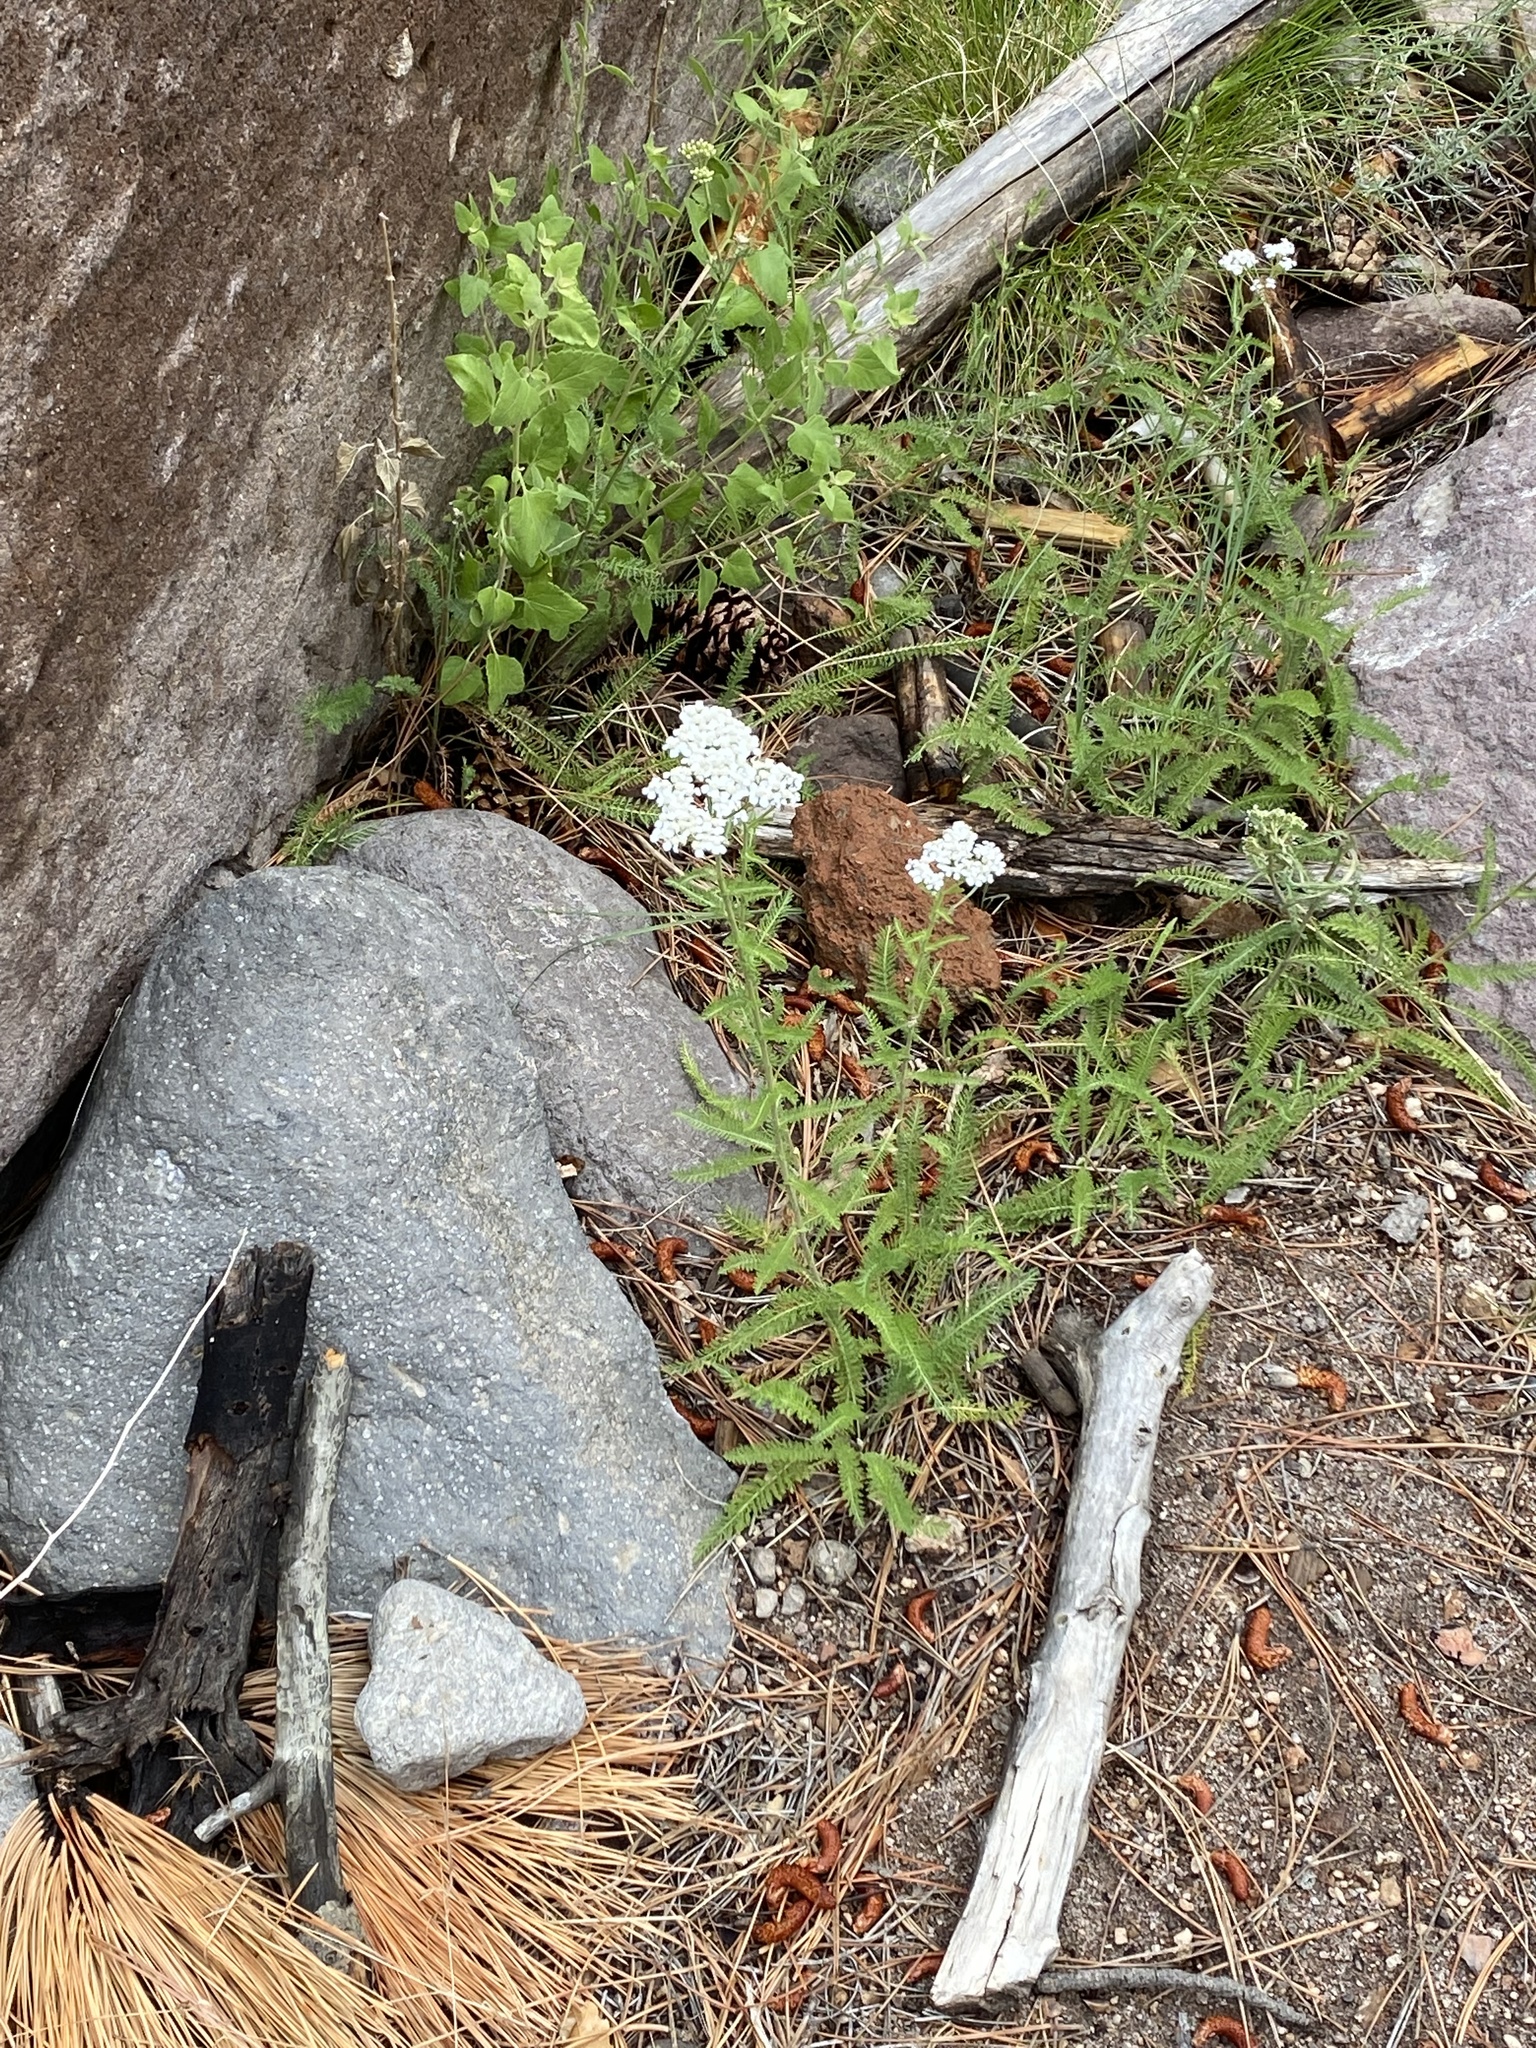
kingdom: Plantae
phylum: Tracheophyta
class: Magnoliopsida
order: Asterales
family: Asteraceae
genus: Achillea
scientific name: Achillea millefolium
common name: Yarrow
